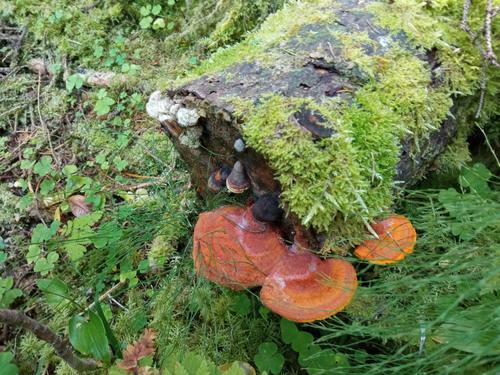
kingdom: Fungi
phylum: Basidiomycota
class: Agaricomycetes
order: Polyporales
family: Pycnoporellaceae
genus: Pycnoporellus
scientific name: Pycnoporellus fulgens
